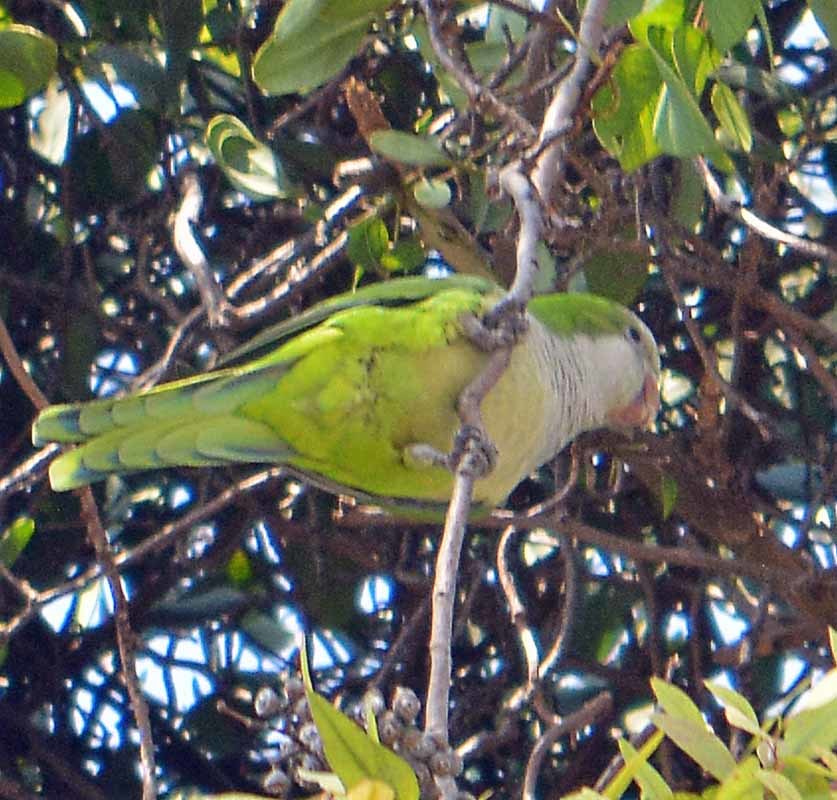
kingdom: Animalia
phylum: Chordata
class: Aves
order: Psittaciformes
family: Psittacidae
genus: Myiopsitta
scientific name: Myiopsitta monachus
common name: Monk parakeet
